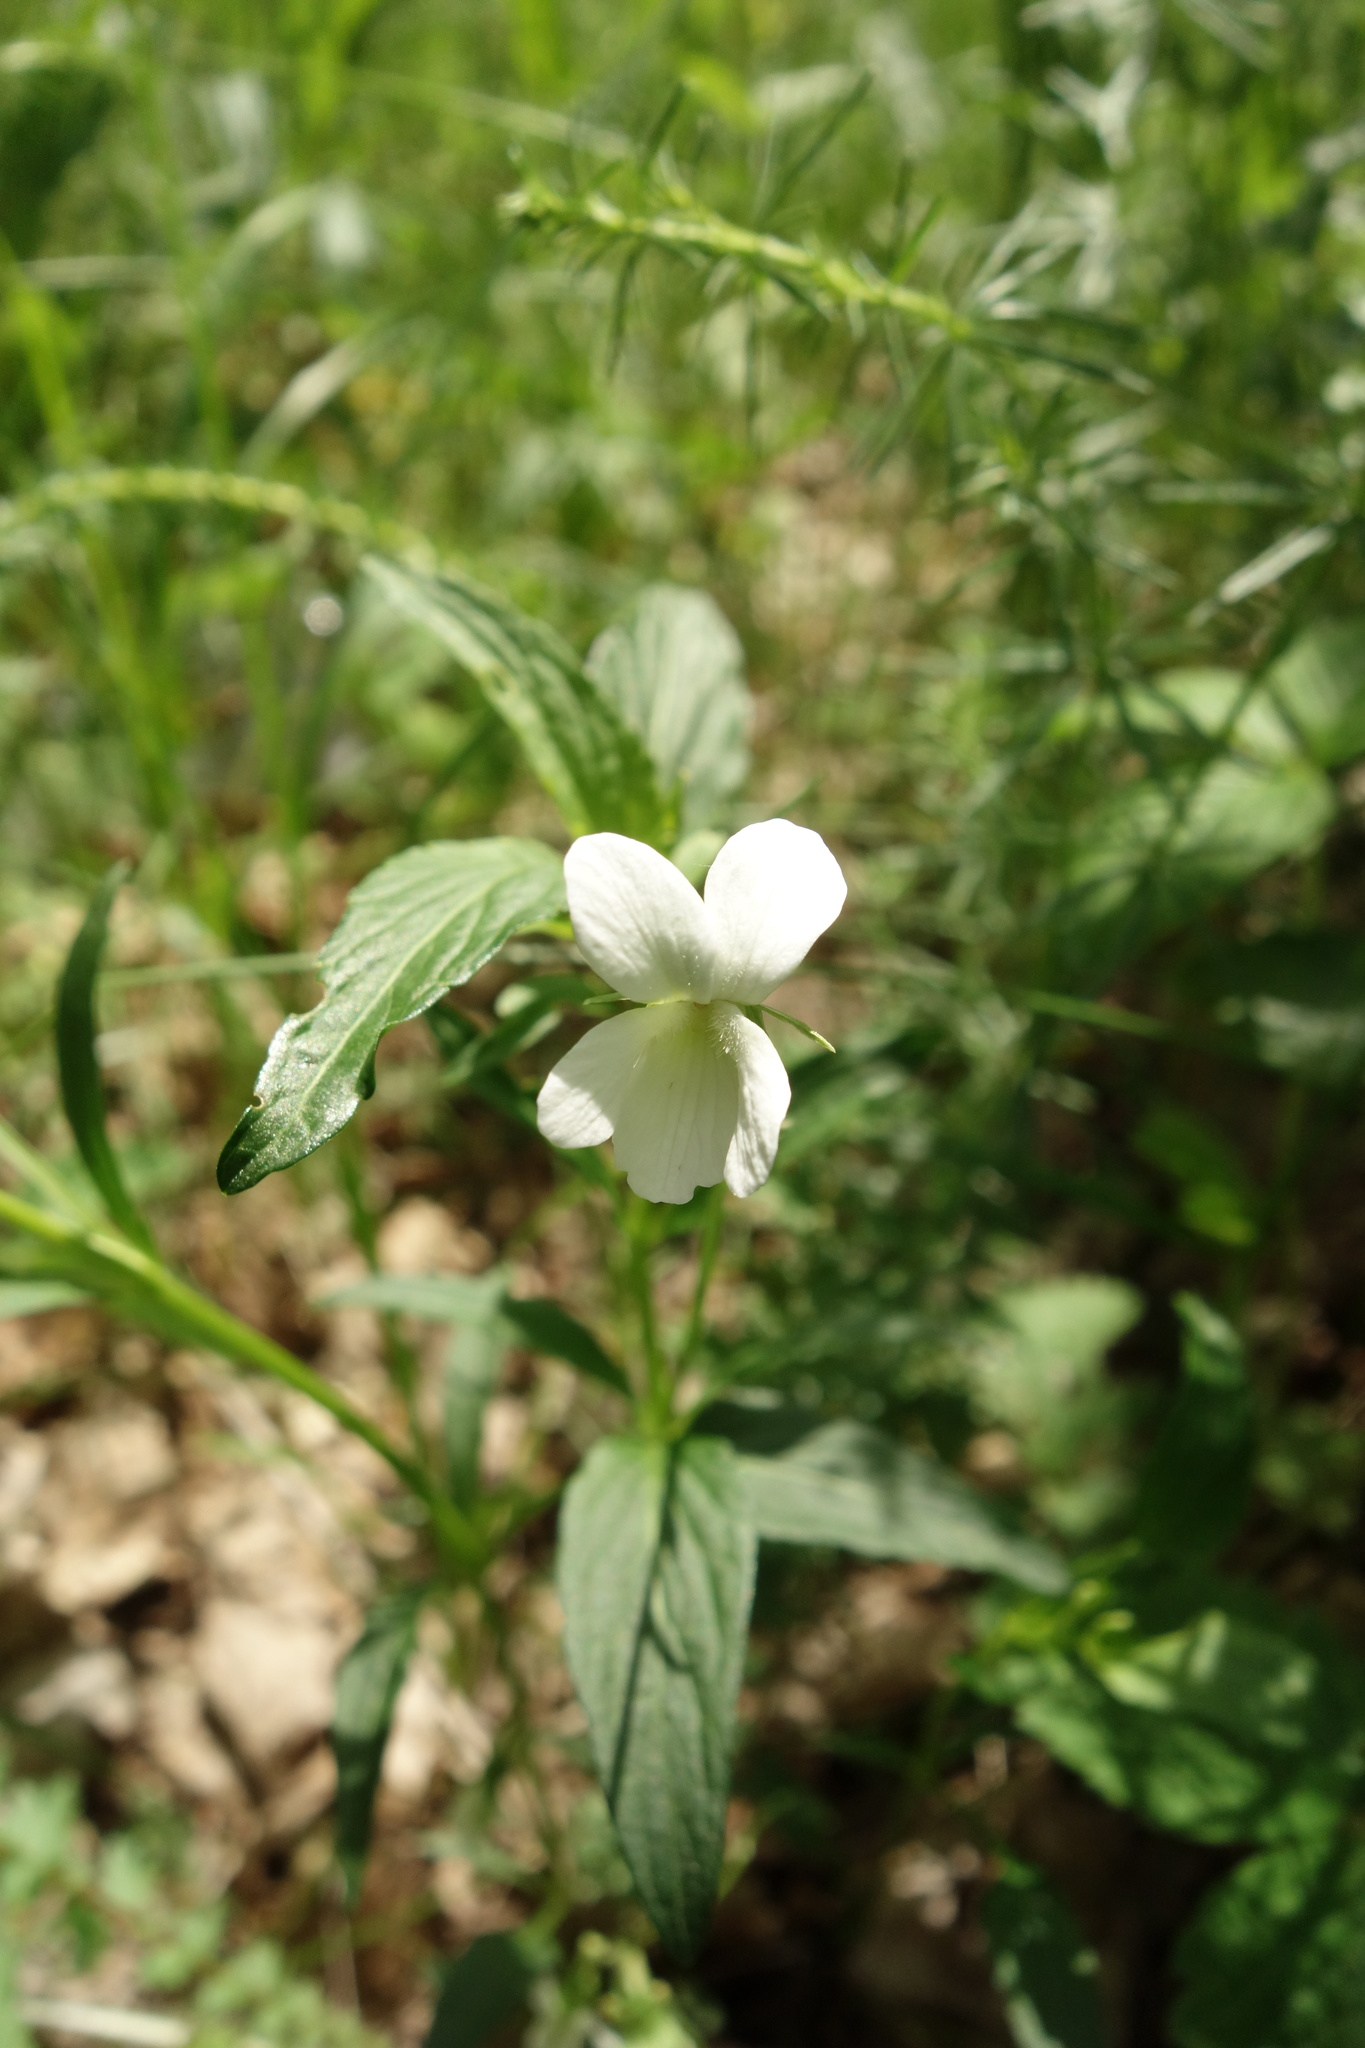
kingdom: Plantae
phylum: Tracheophyta
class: Magnoliopsida
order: Malpighiales
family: Violaceae
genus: Viola
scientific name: Viola pumila
